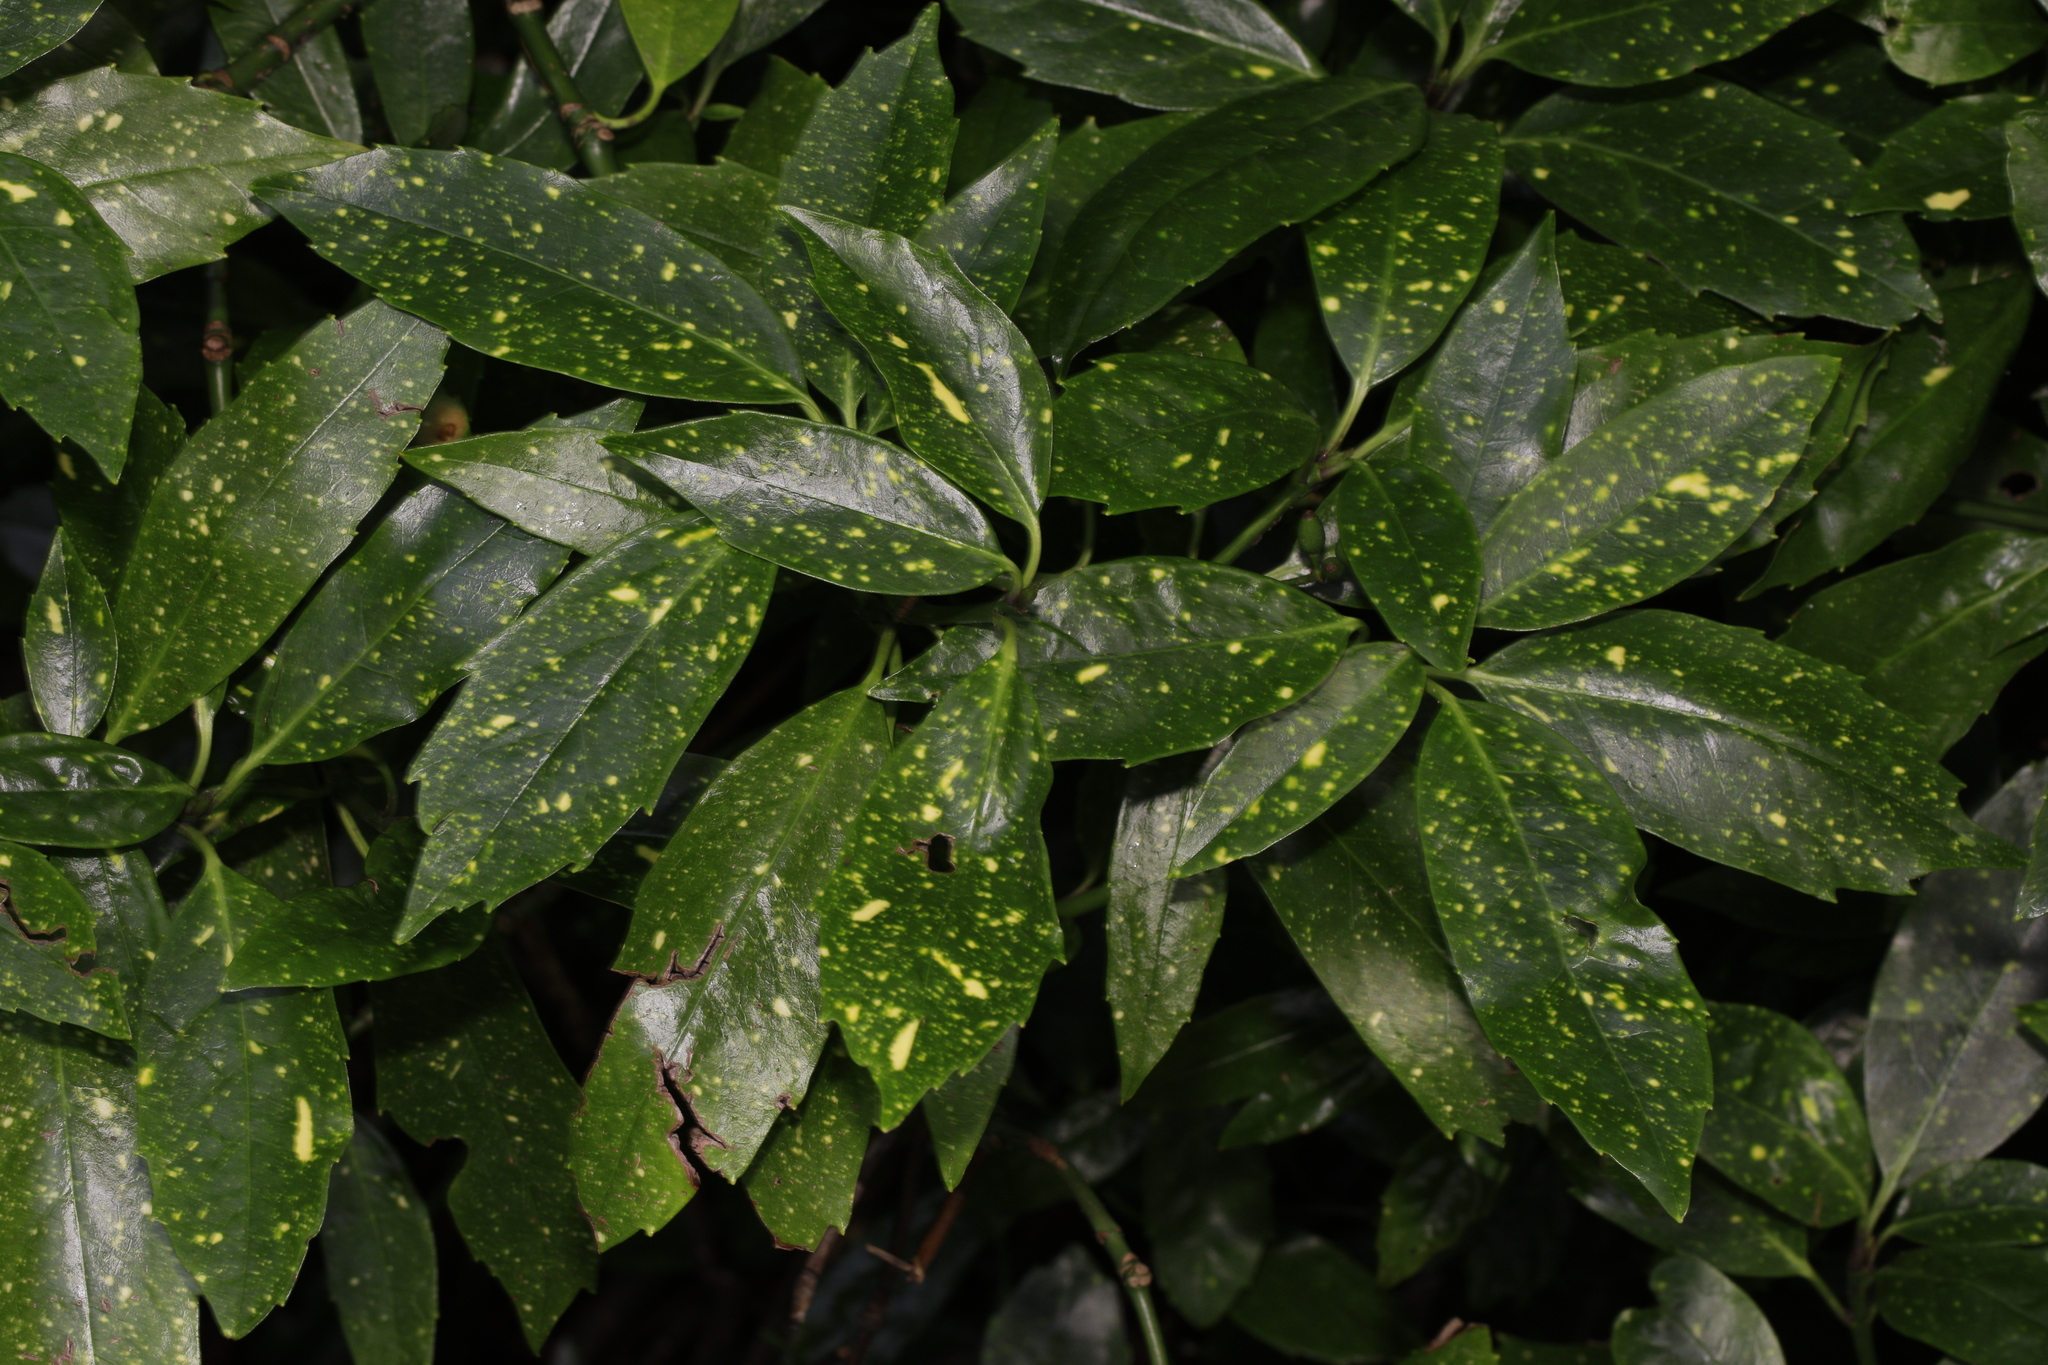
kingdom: Plantae
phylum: Tracheophyta
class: Magnoliopsida
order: Garryales
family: Garryaceae
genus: Aucuba
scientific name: Aucuba japonica
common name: Spotted-laurel
